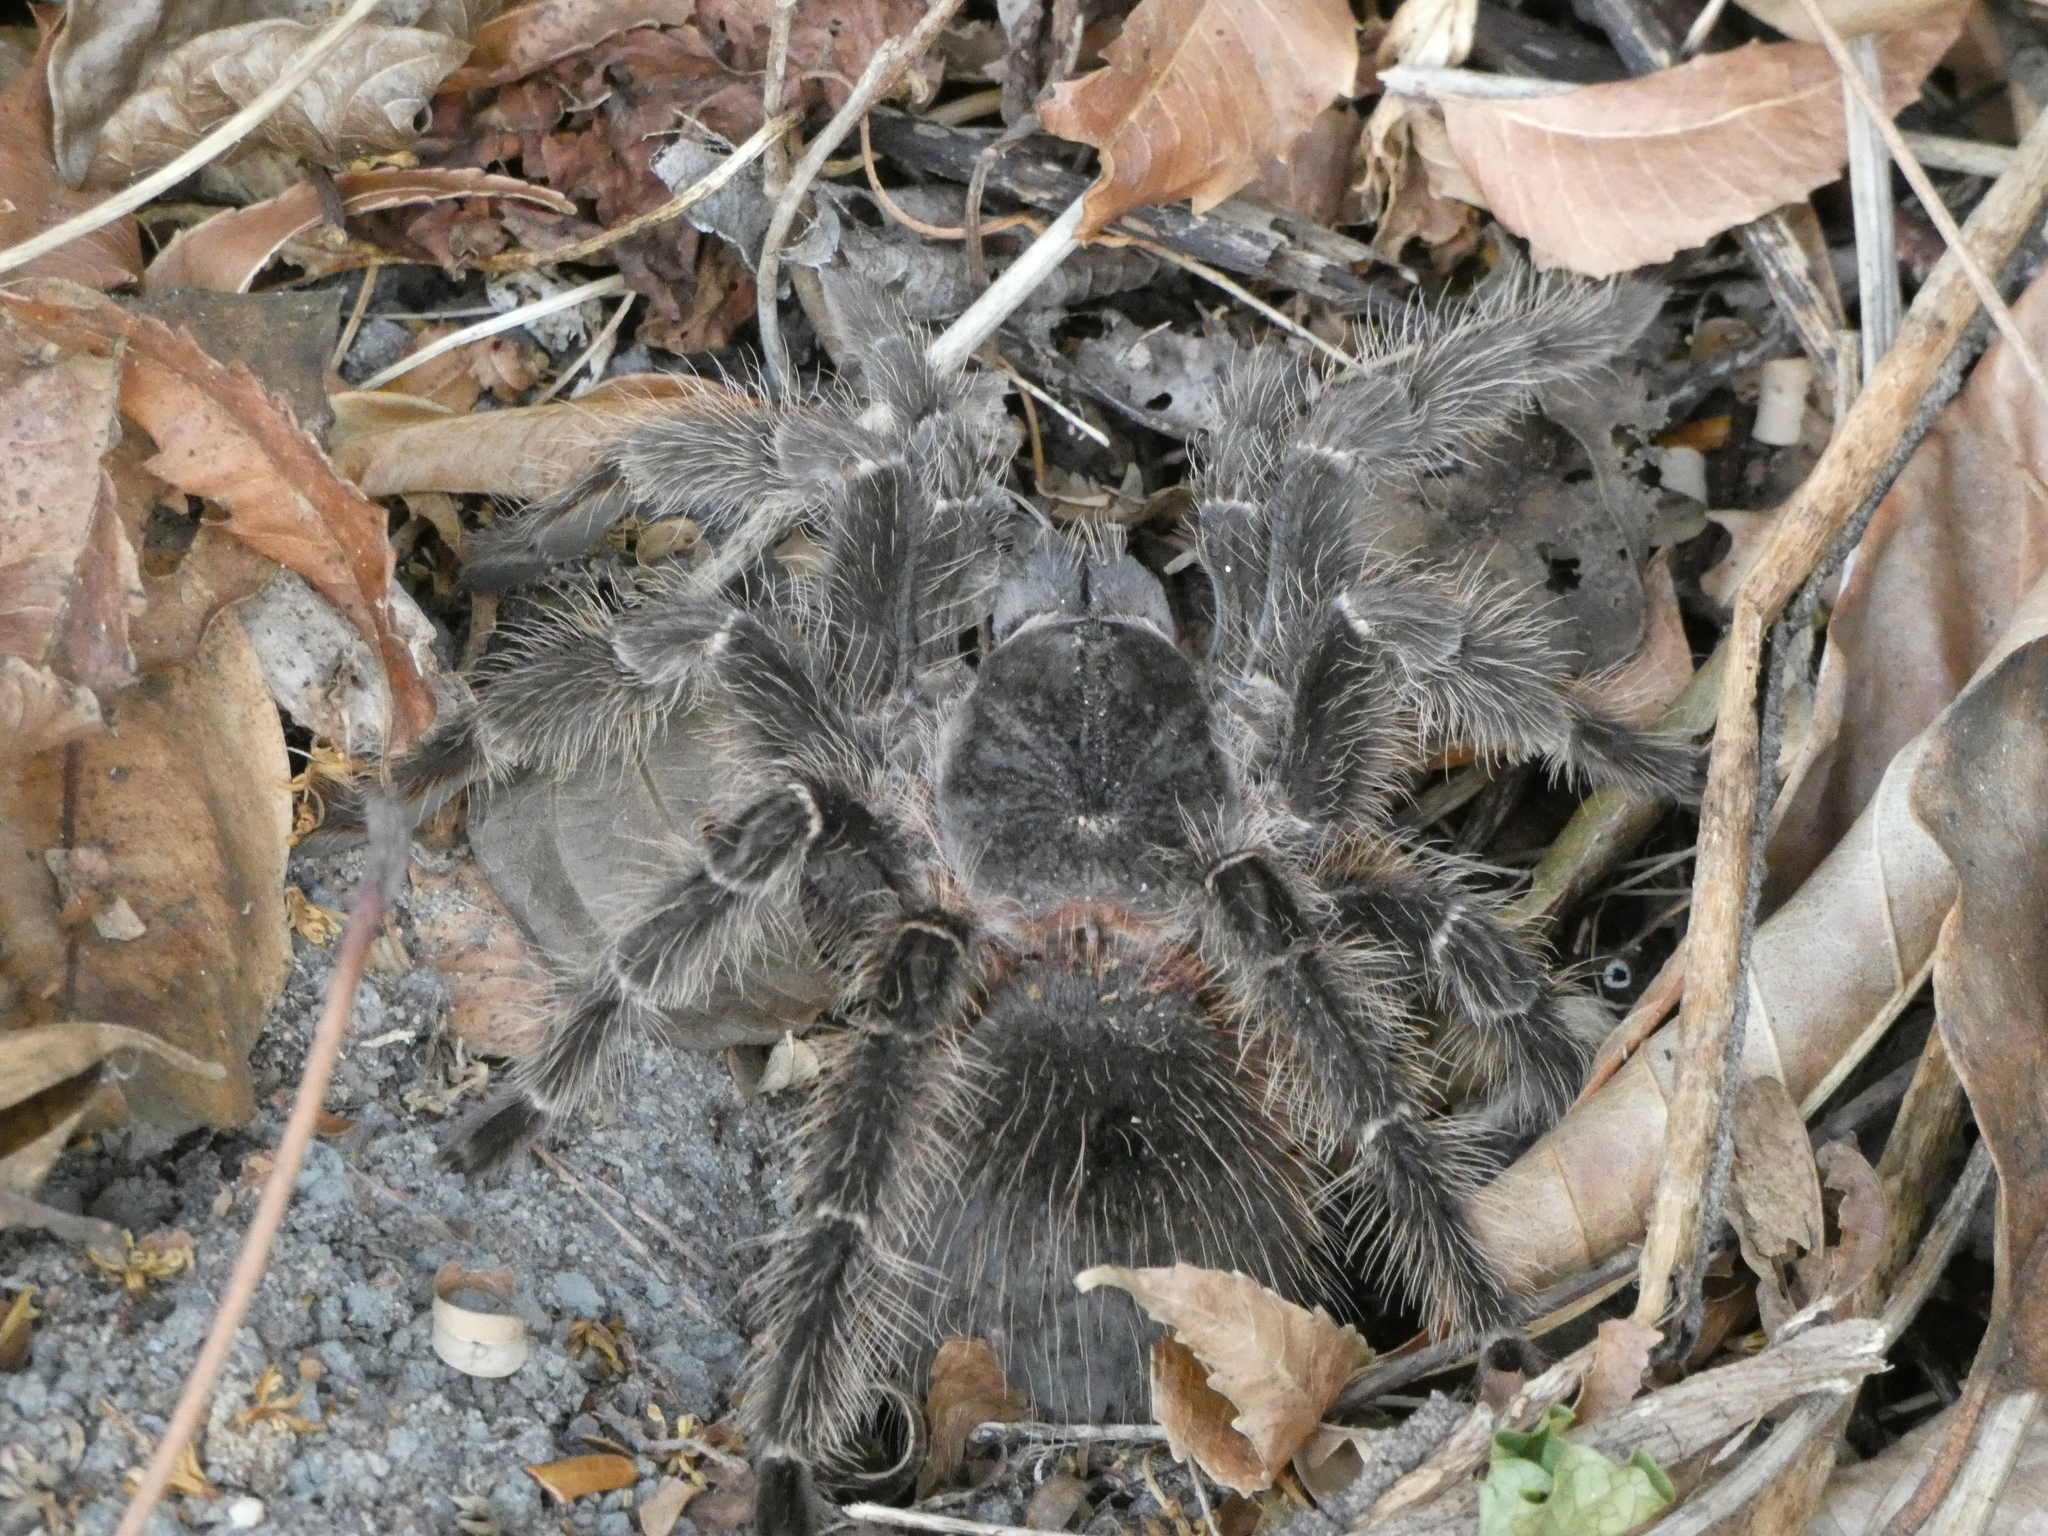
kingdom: Animalia
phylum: Arthropoda
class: Arachnida
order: Araneae
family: Theraphosidae
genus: Lasiodora
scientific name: Lasiodora parahybana
